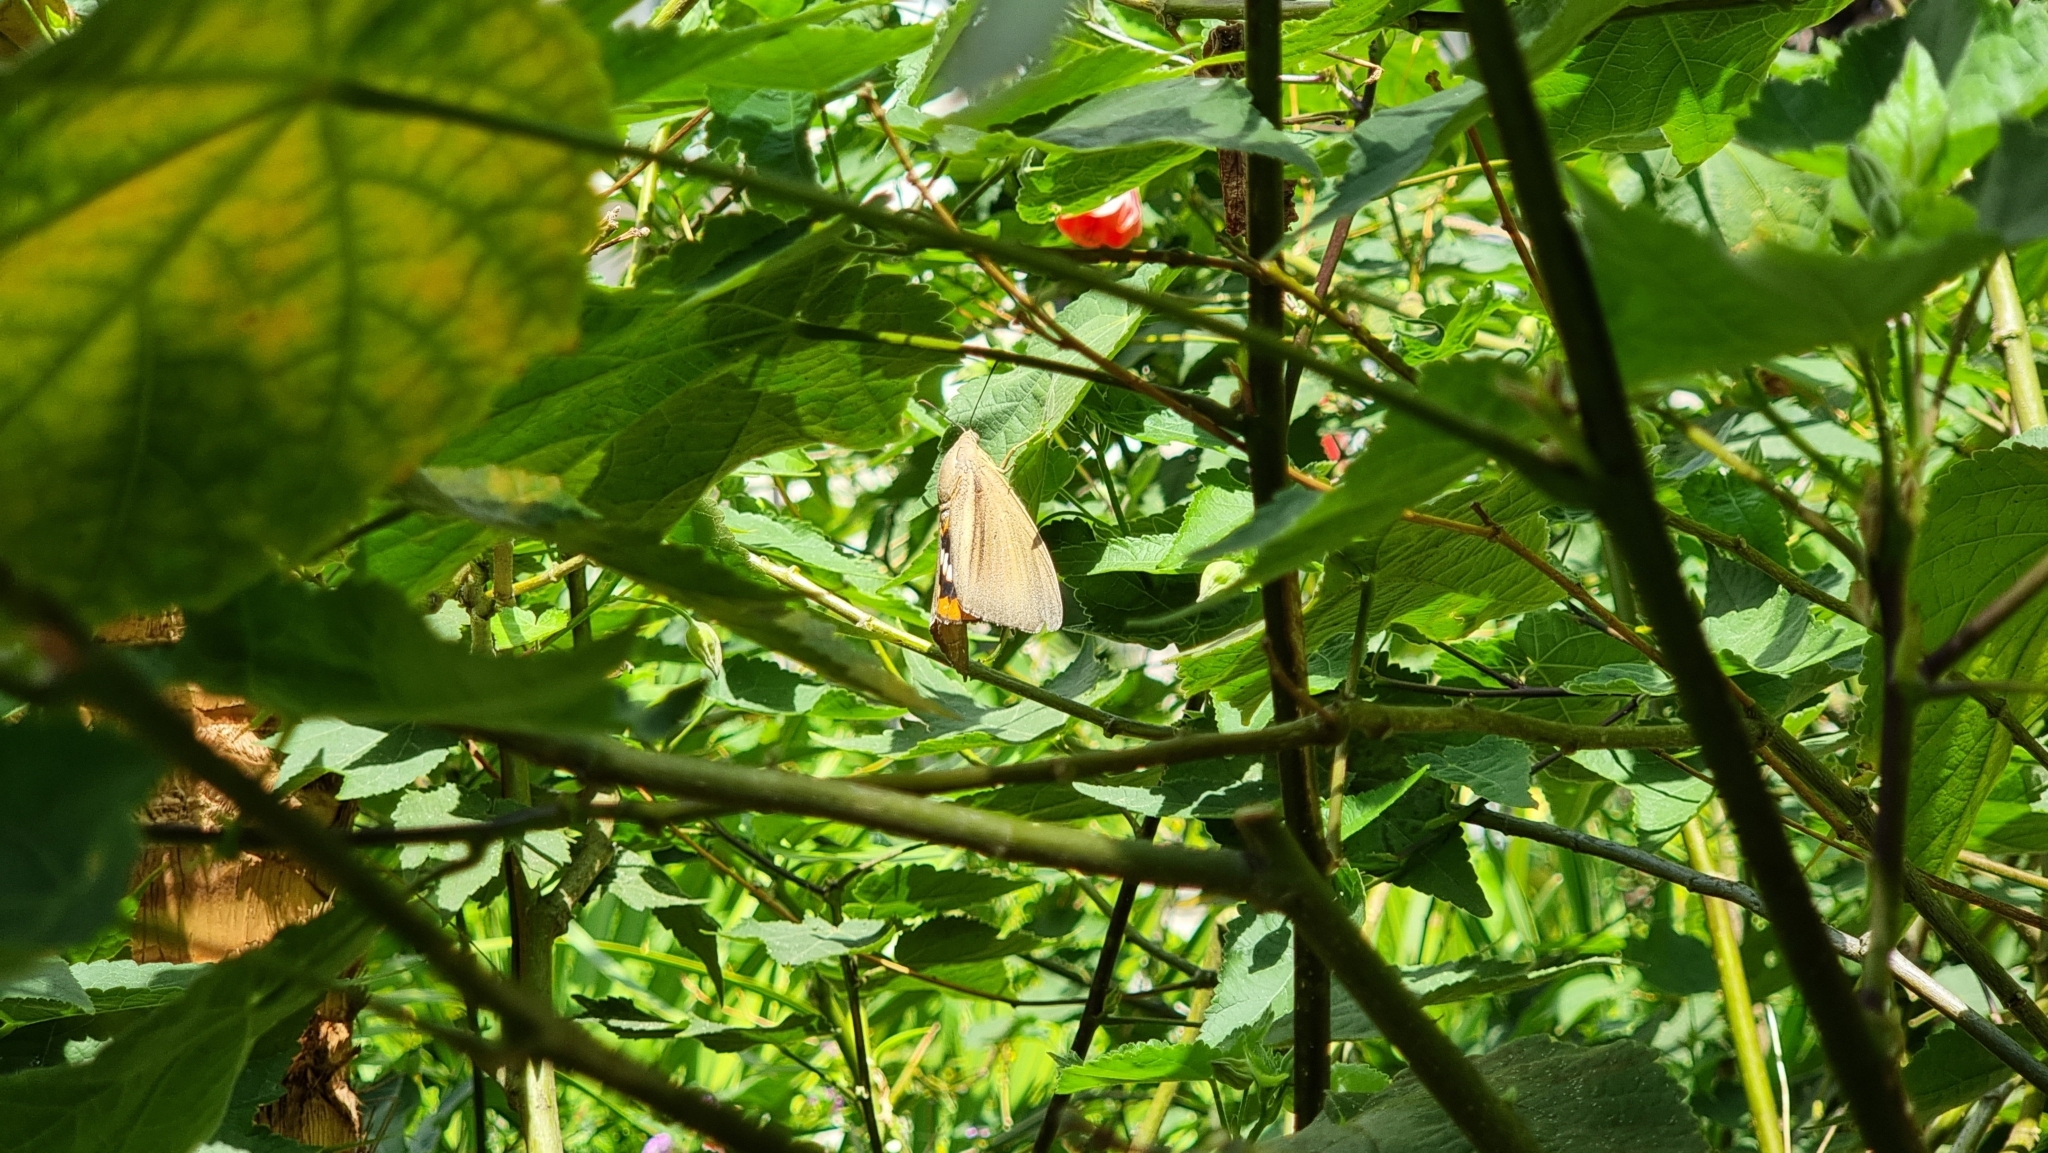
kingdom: Animalia
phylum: Arthropoda
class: Insecta
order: Lepidoptera
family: Castniidae
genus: Paysandisia
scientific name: Paysandisia archon
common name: Palm moth
